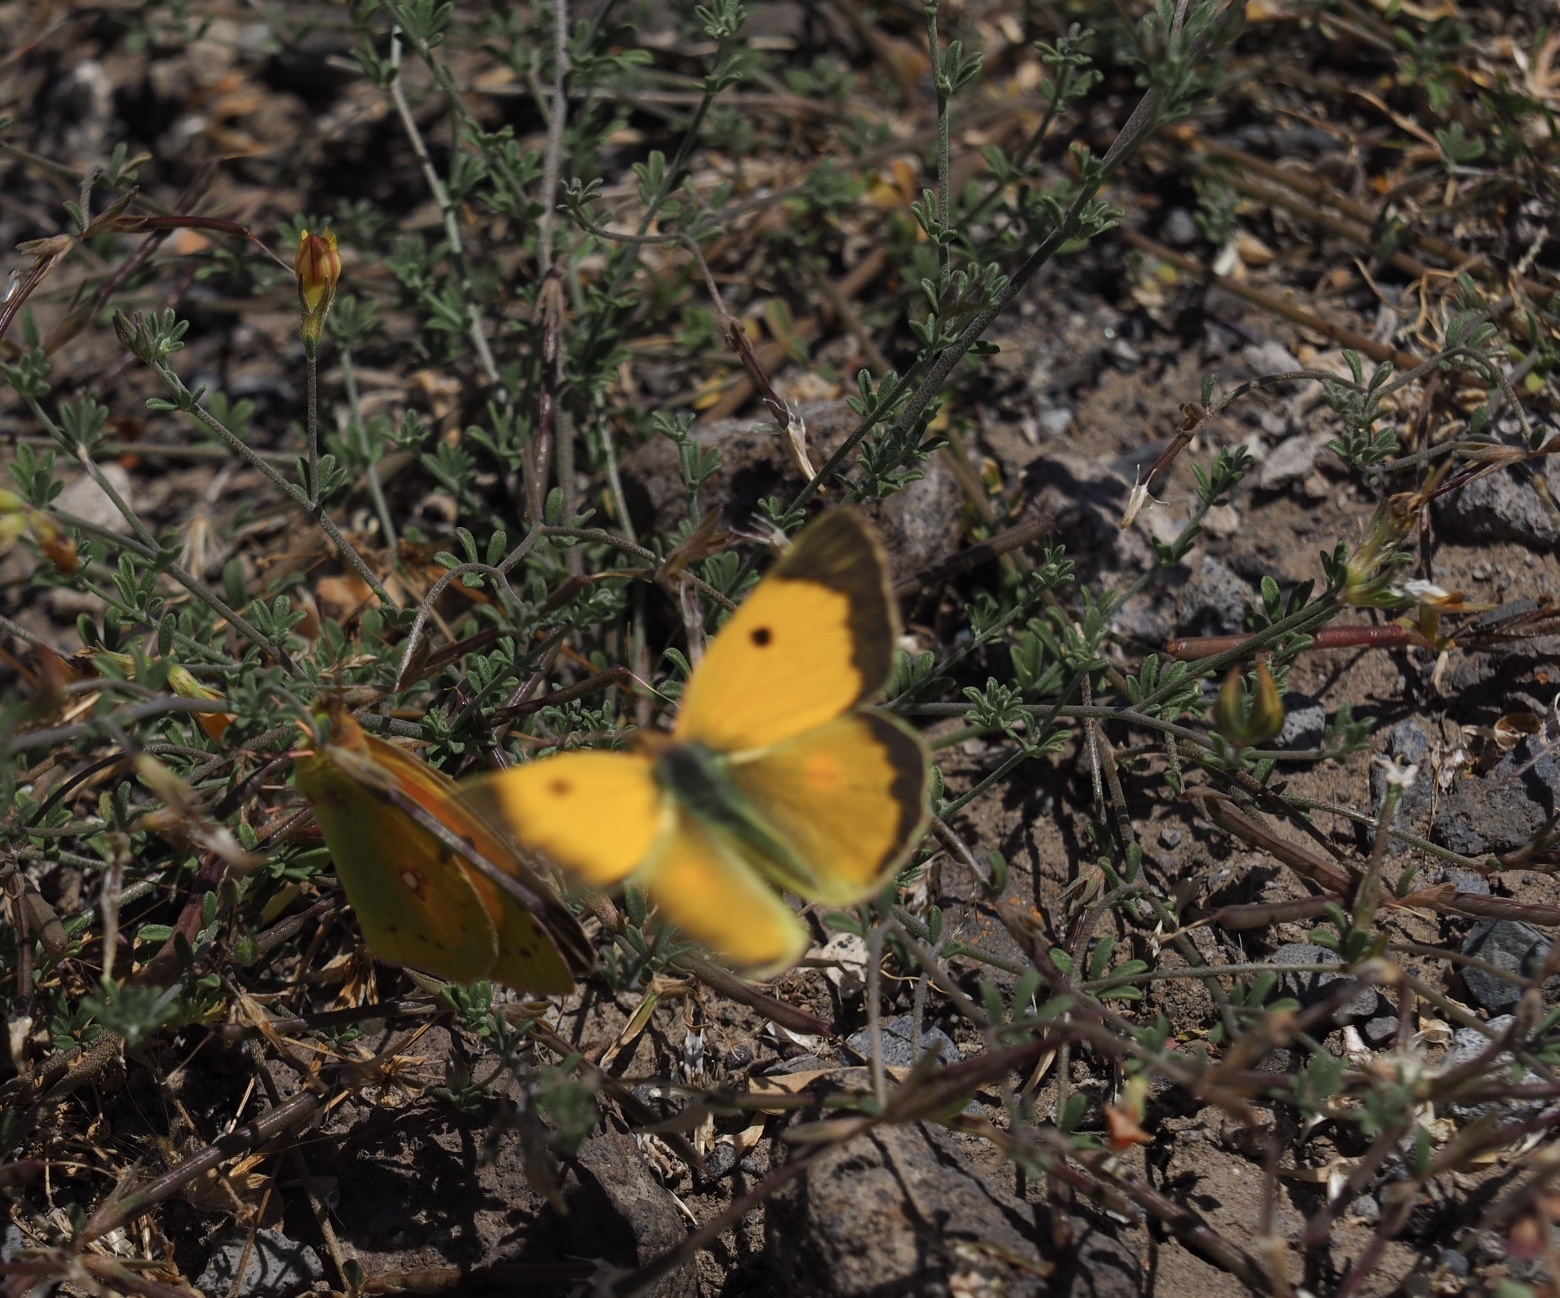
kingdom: Animalia
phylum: Arthropoda
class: Insecta
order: Lepidoptera
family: Pieridae
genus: Colias
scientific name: Colias croceus
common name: Clouded yellow
